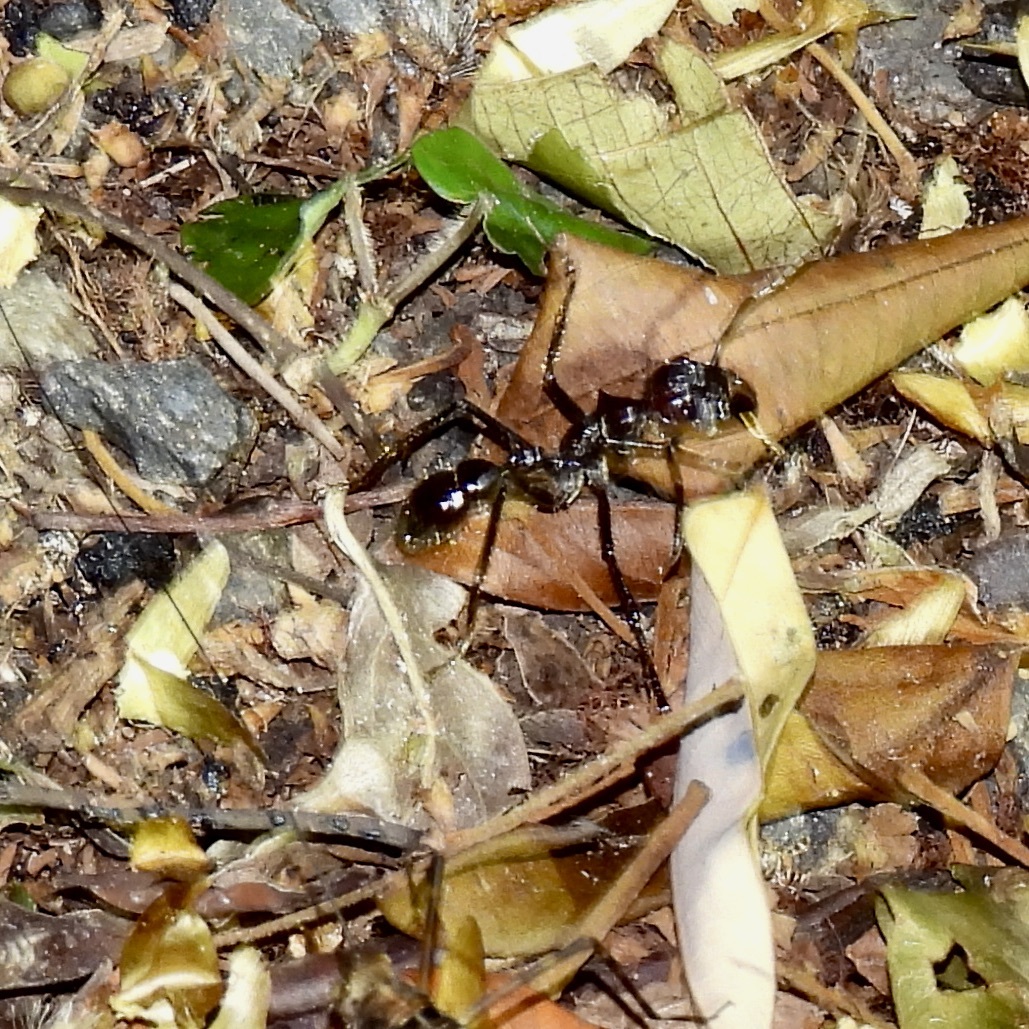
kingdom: Animalia
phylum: Arthropoda
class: Insecta
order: Hymenoptera
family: Formicidae
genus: Paraponera
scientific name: Paraponera clavata
